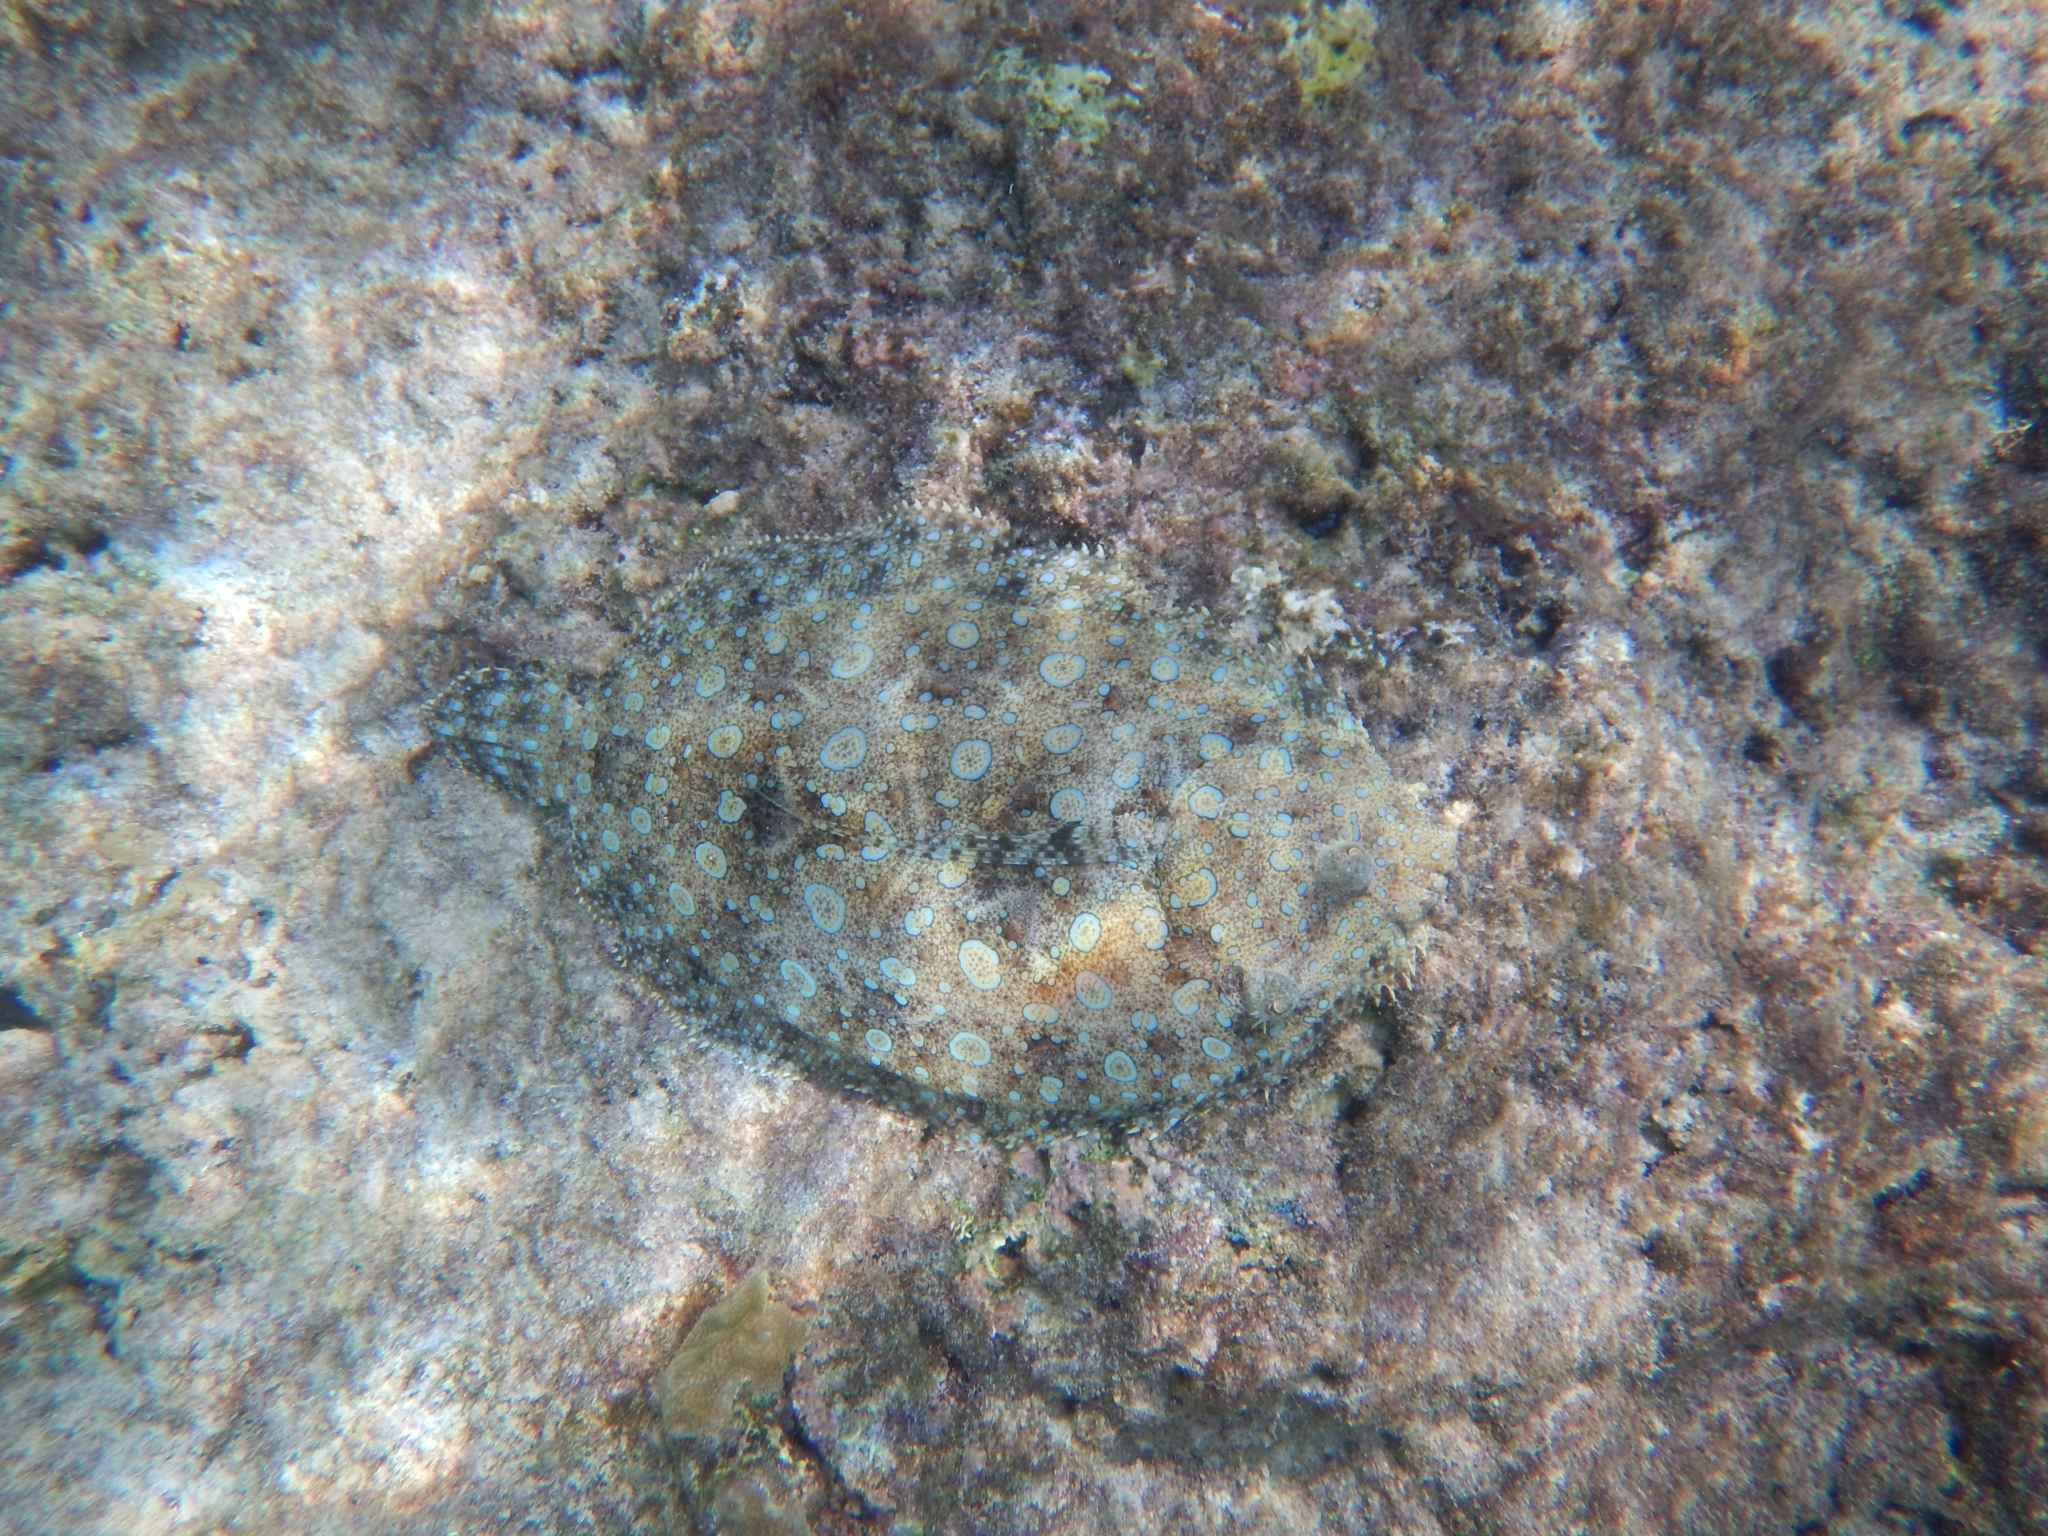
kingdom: Animalia
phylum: Chordata
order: Pleuronectiformes
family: Bothidae
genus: Bothus
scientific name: Bothus lunatus
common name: Peacock flounder
